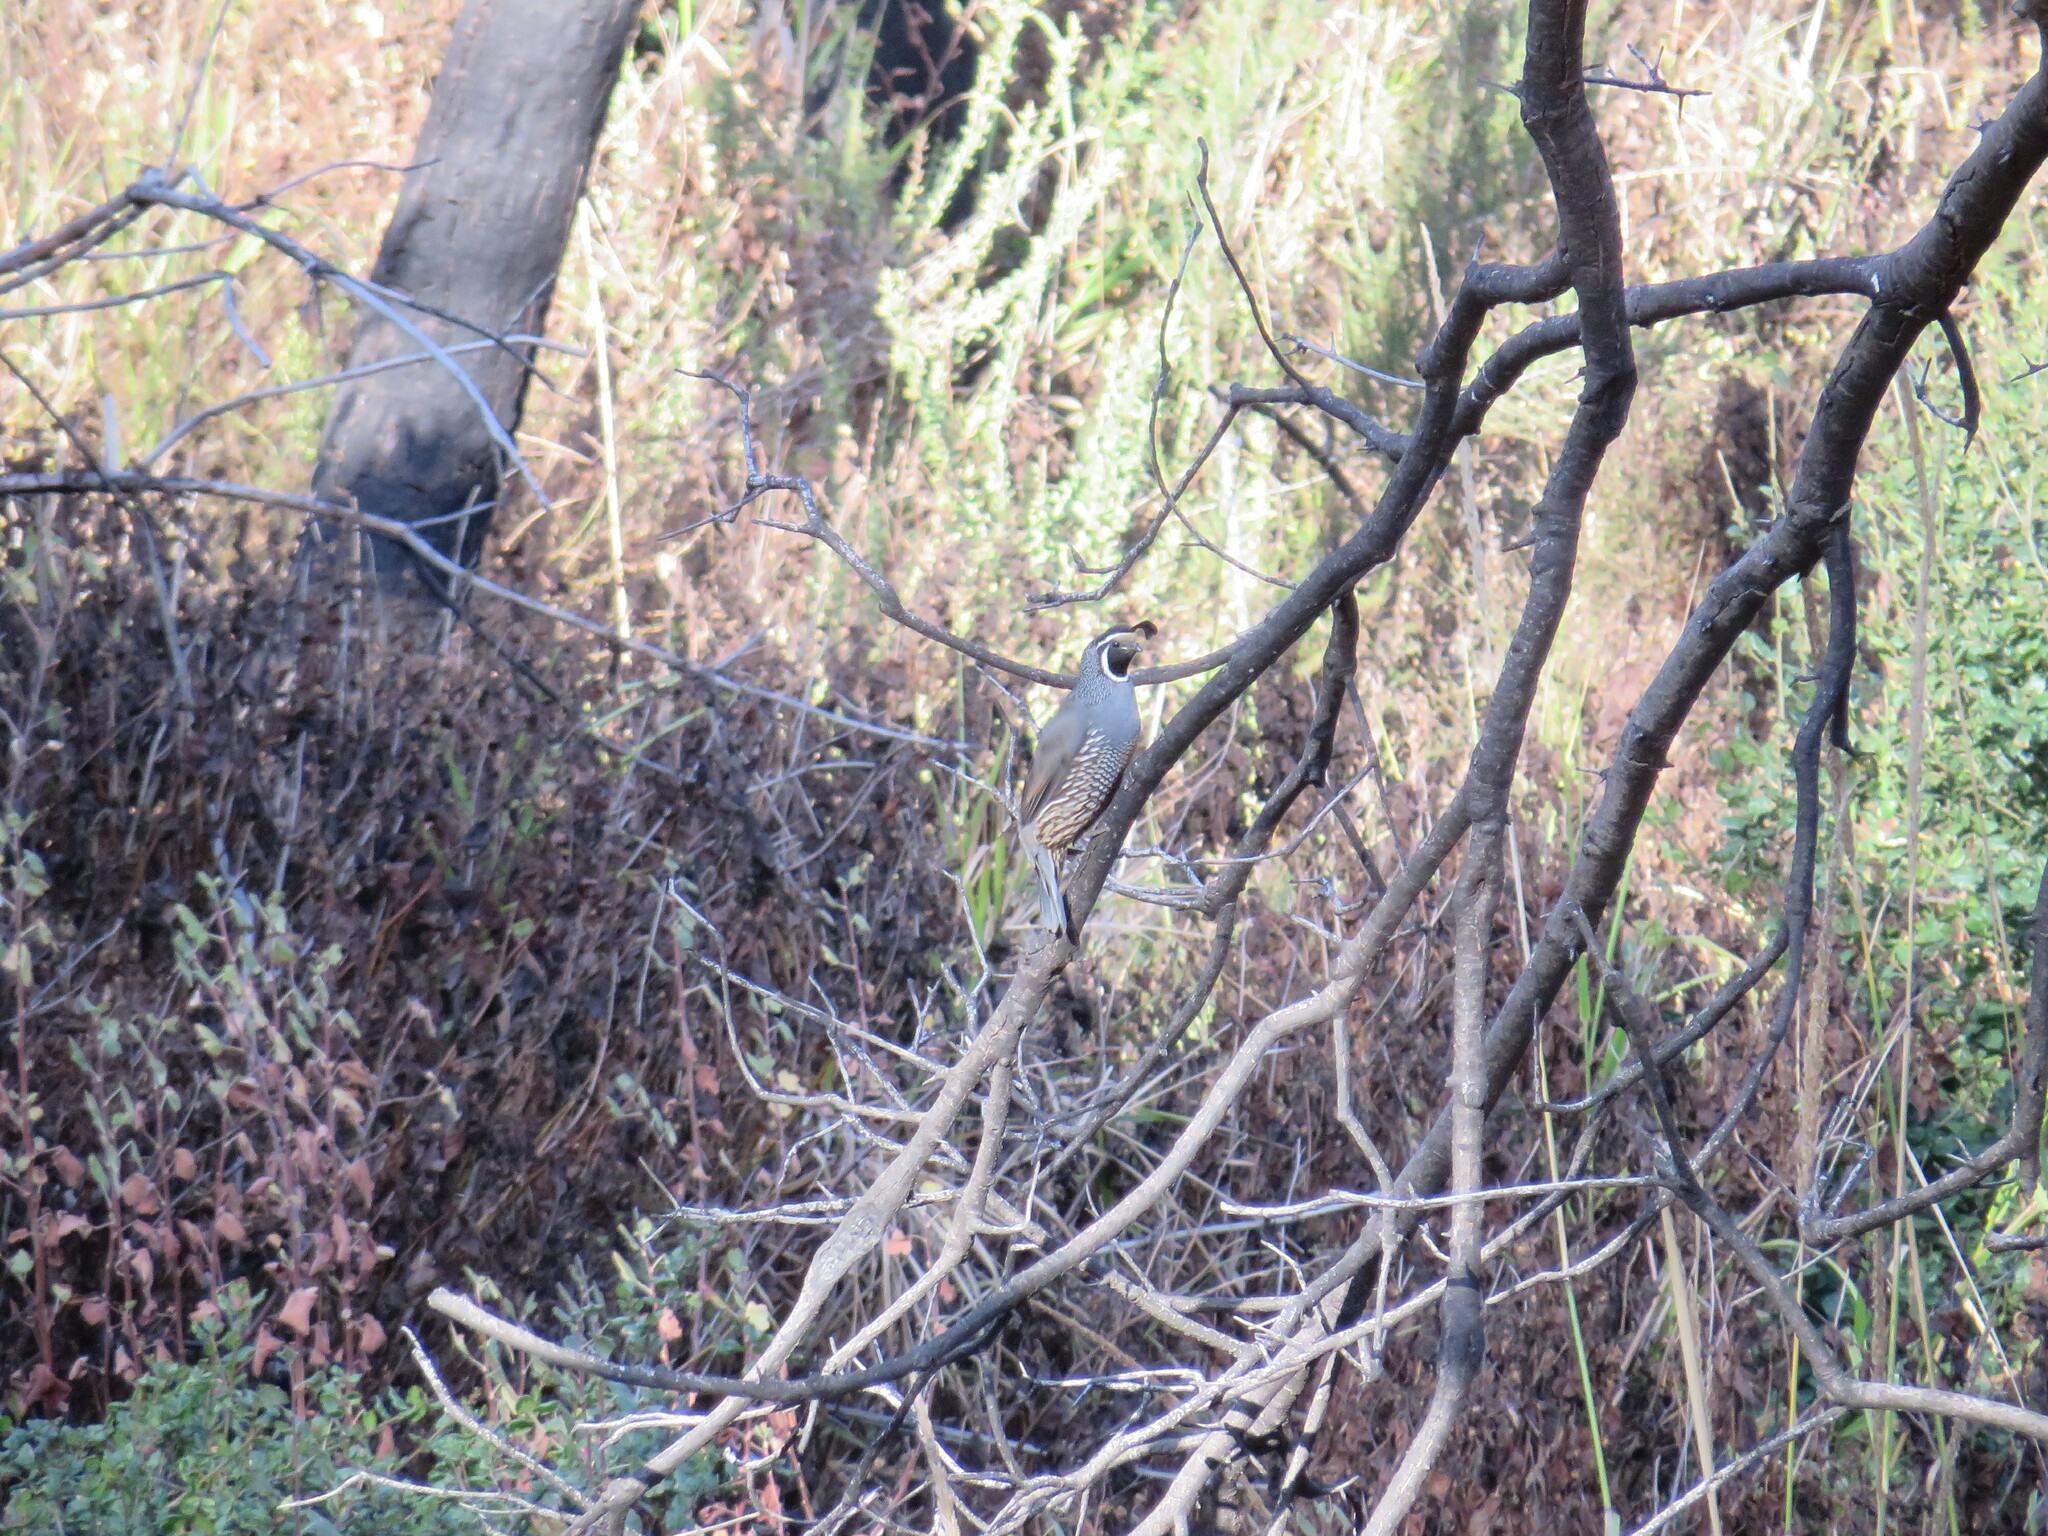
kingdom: Animalia
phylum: Chordata
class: Aves
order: Galliformes
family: Odontophoridae
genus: Callipepla
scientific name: Callipepla californica
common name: California quail
